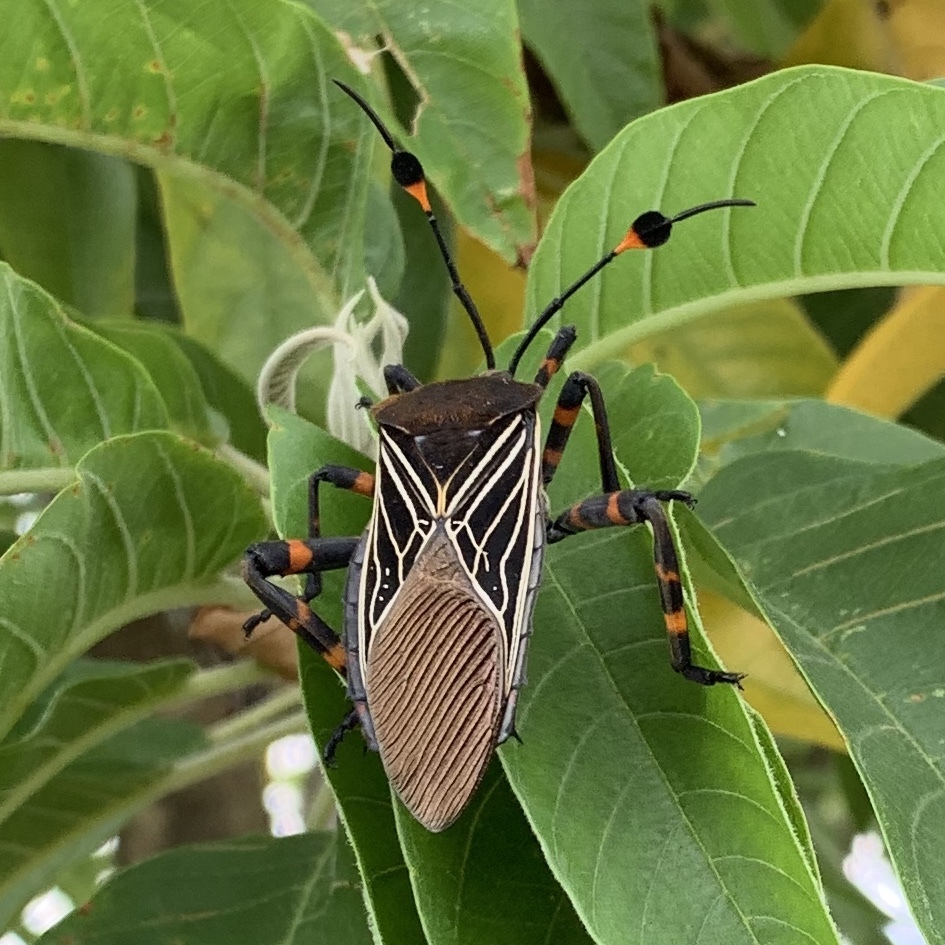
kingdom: Animalia
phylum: Arthropoda
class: Insecta
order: Hemiptera
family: Coreidae
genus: Thasus
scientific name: Thasus
